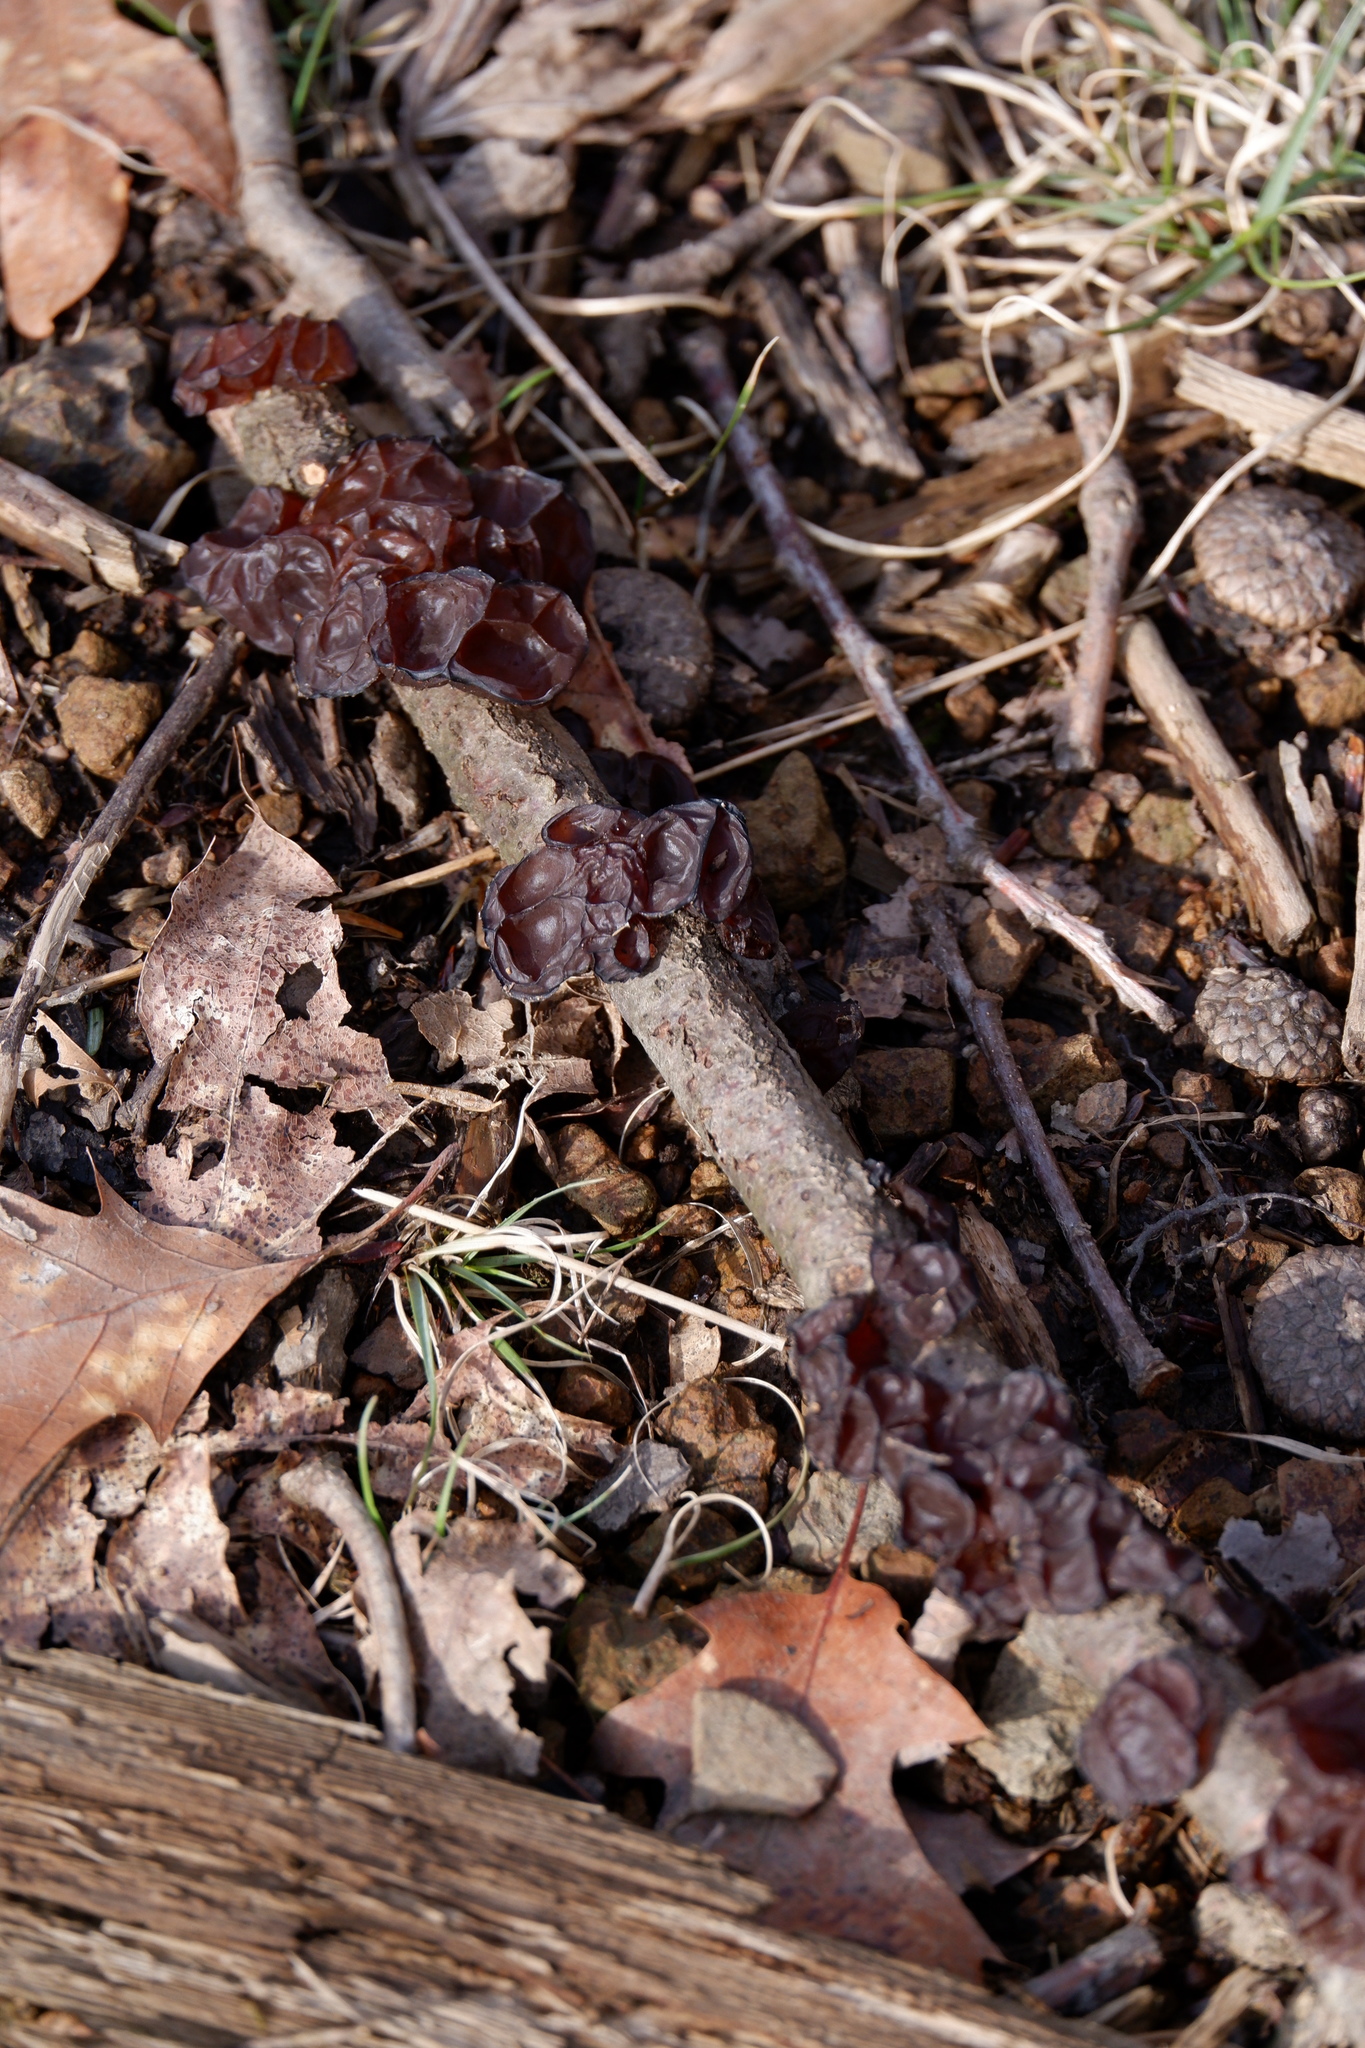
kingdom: Fungi
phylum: Basidiomycota
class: Agaricomycetes
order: Auriculariales
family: Auriculariaceae
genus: Exidia
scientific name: Exidia
